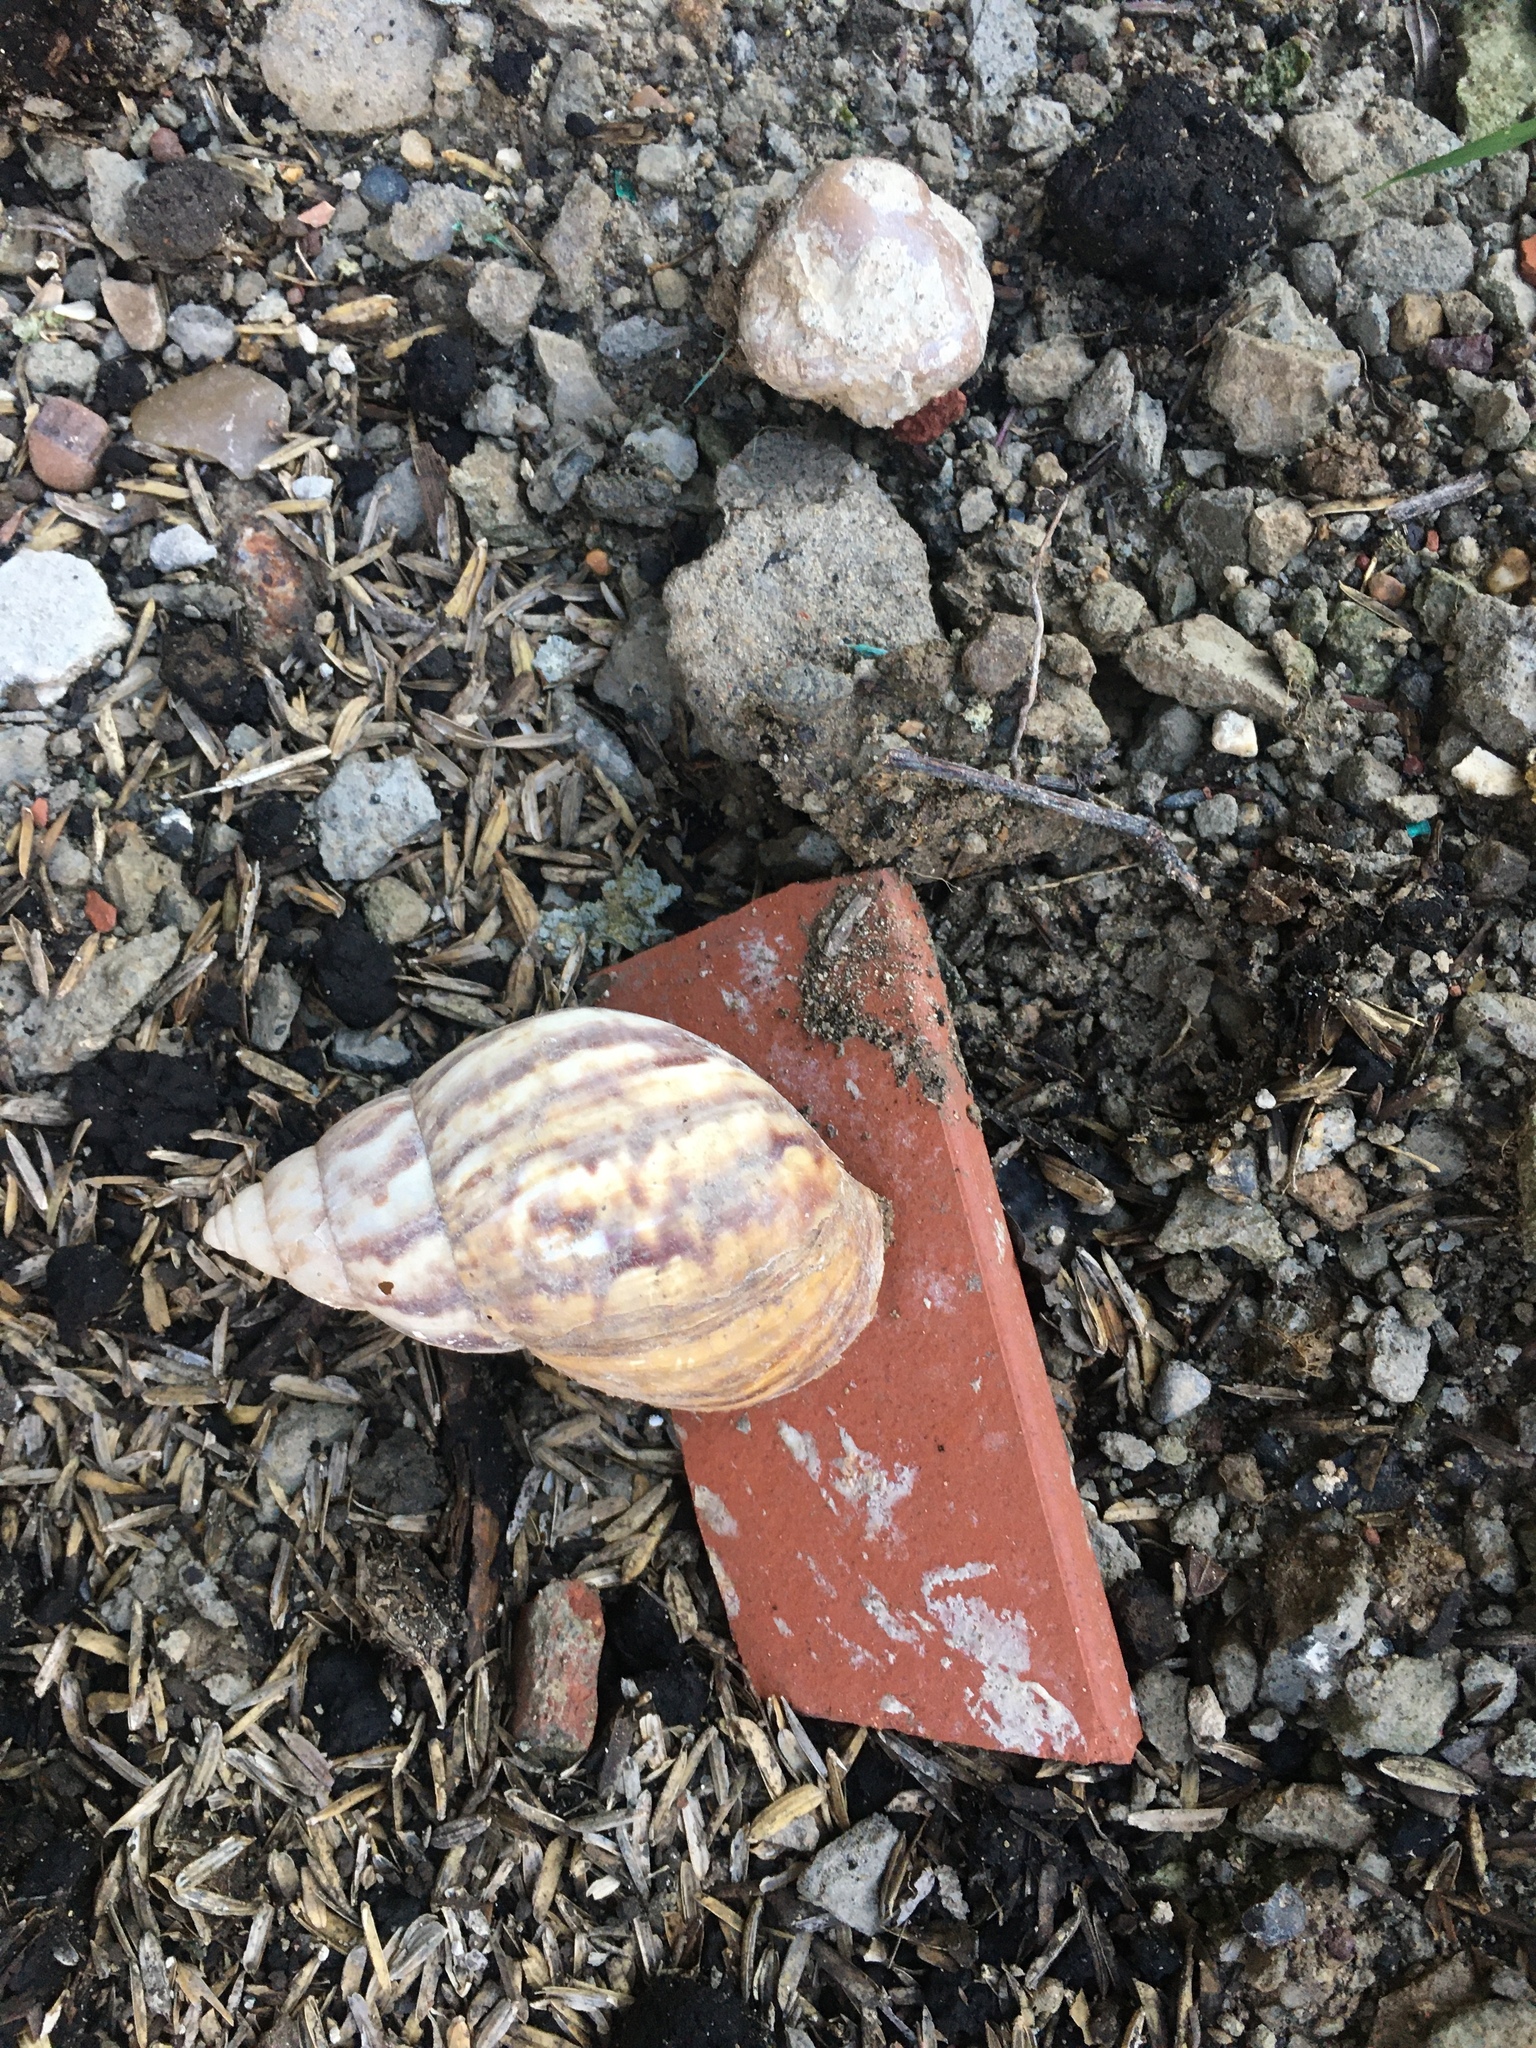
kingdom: Animalia
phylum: Mollusca
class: Gastropoda
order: Stylommatophora
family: Achatinidae
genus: Lissachatina
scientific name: Lissachatina fulica
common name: Giant african snail
